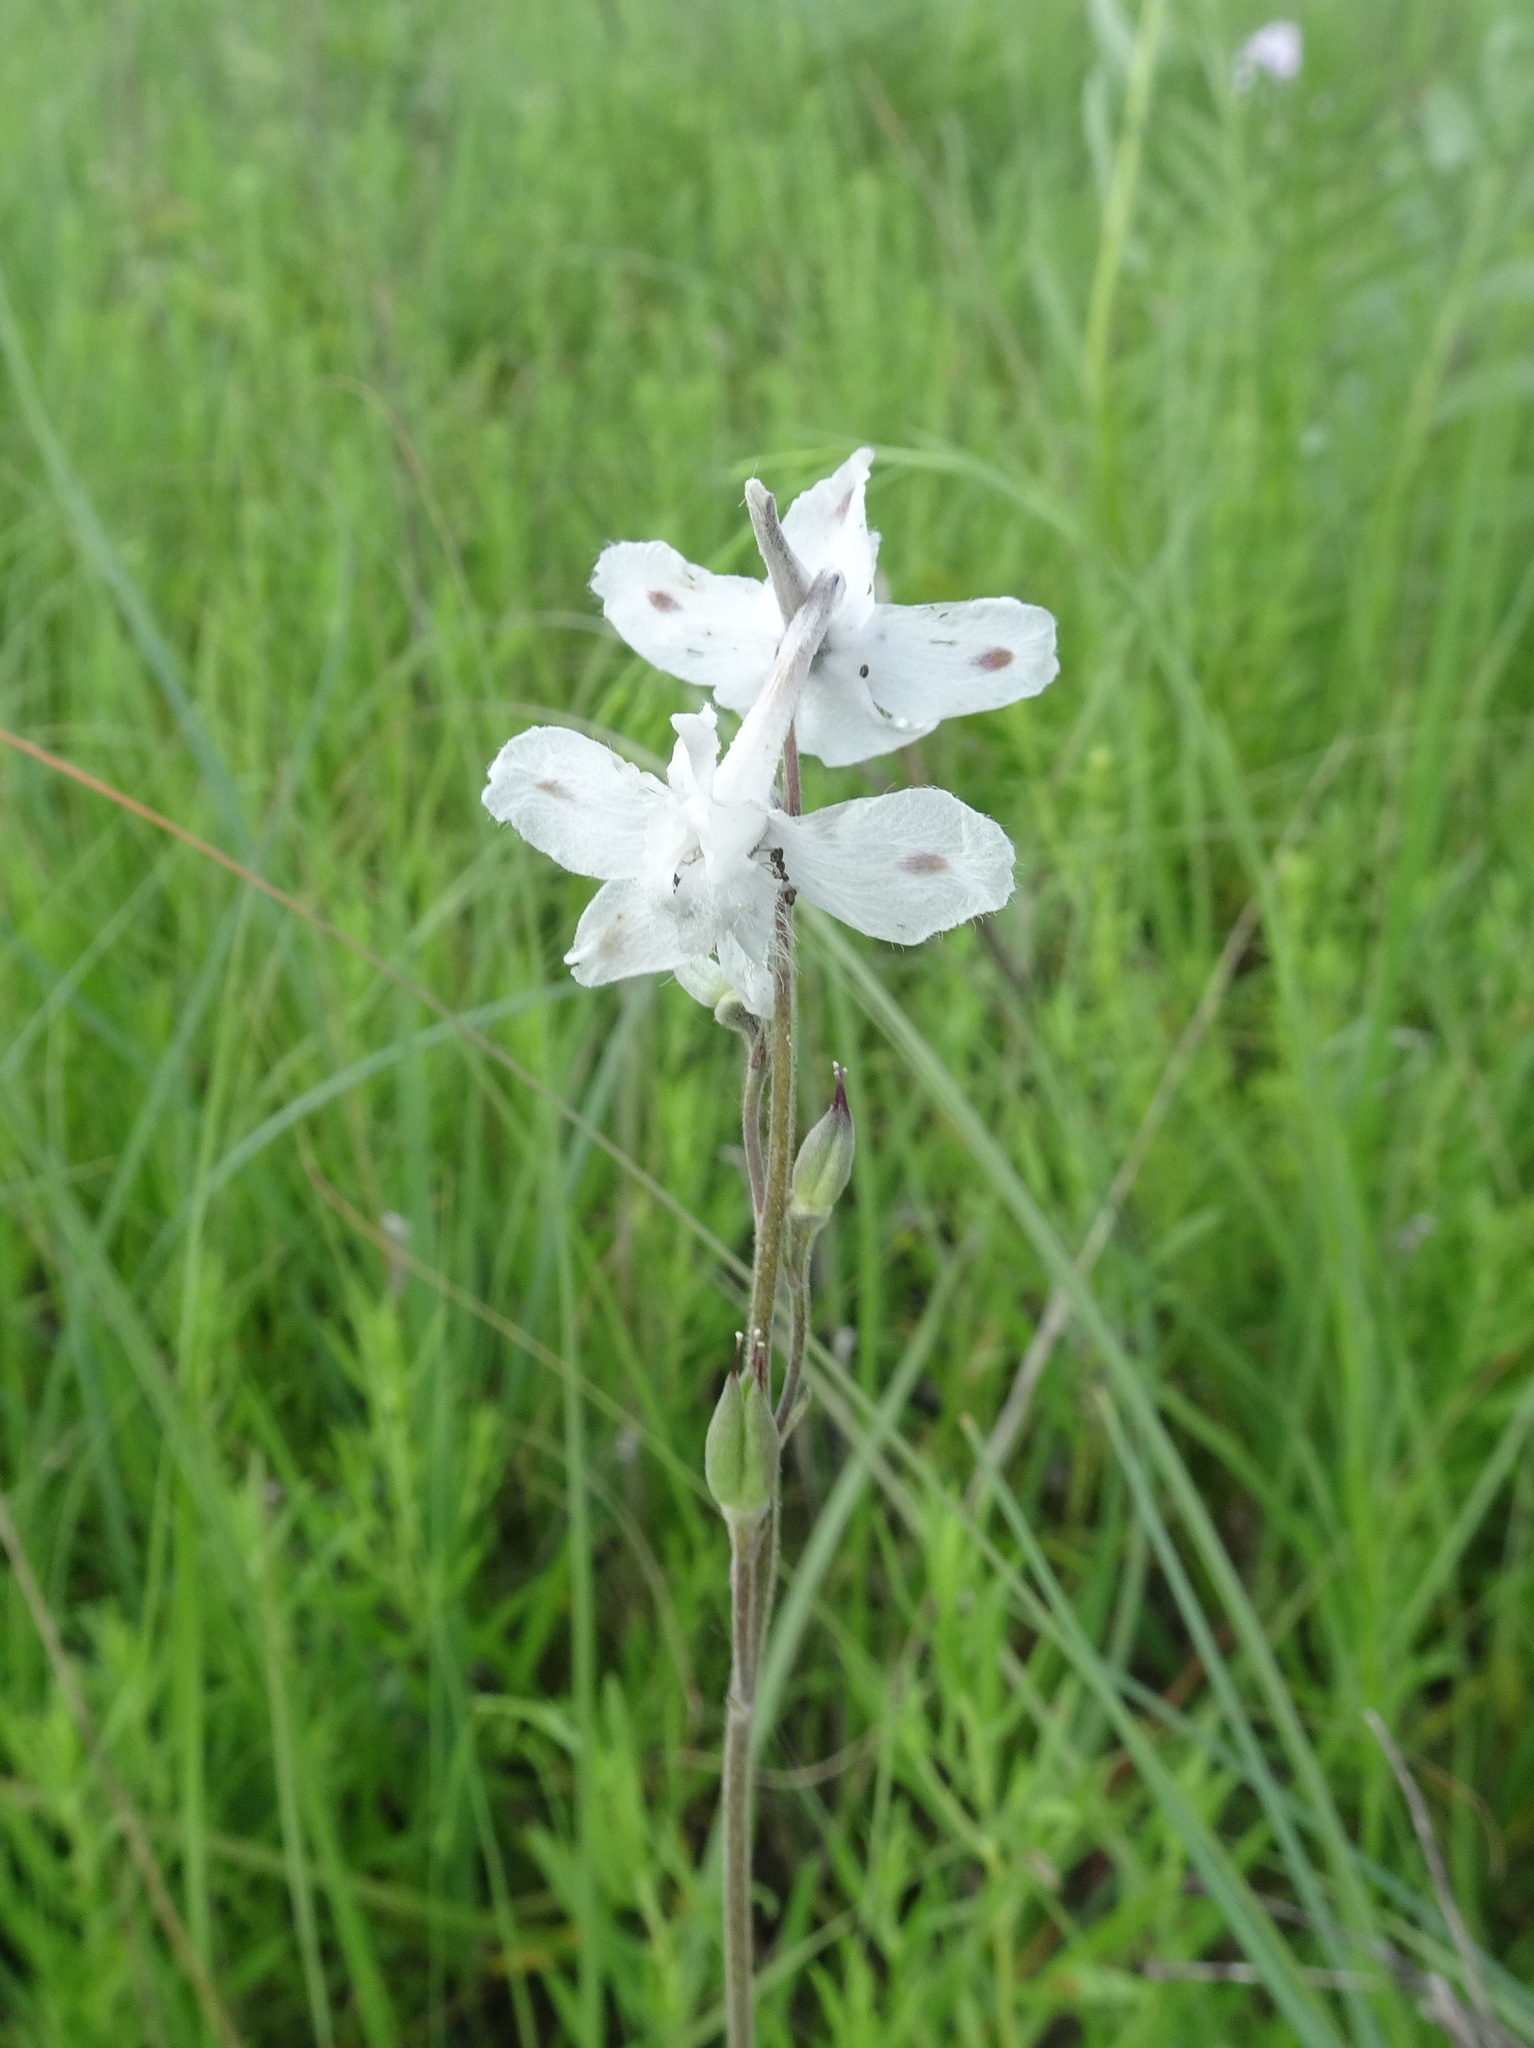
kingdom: Plantae
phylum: Tracheophyta
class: Magnoliopsida
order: Ranunculales
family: Ranunculaceae
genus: Delphinium
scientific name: Delphinium carolinianum
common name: Carolina larkspur
